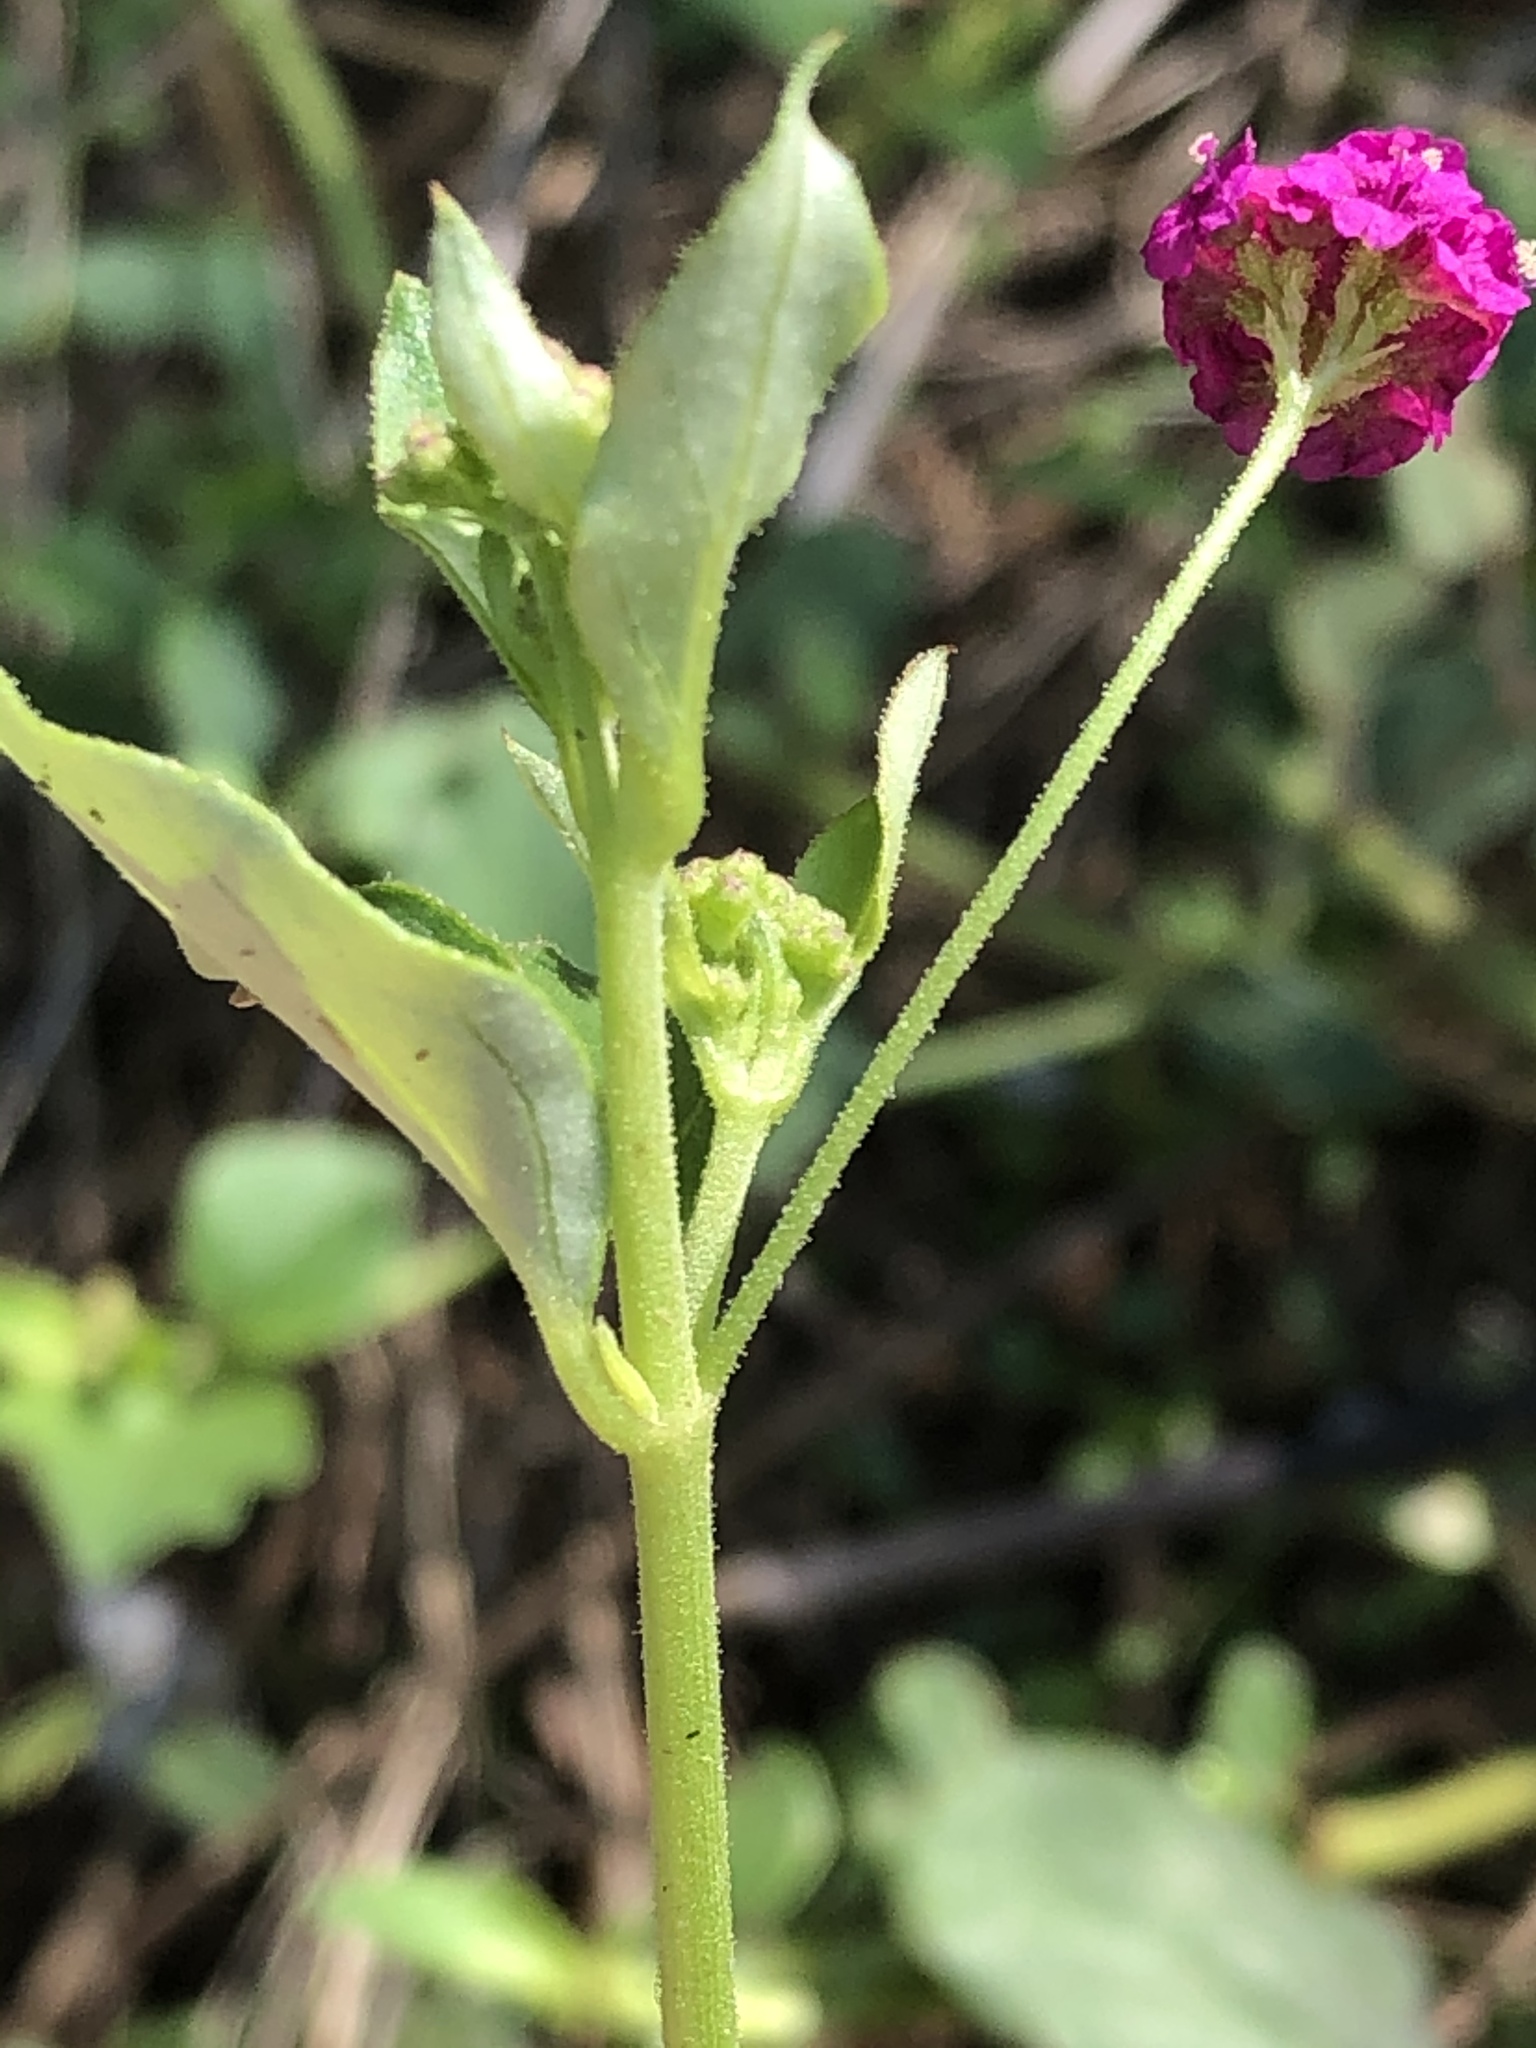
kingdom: Plantae
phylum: Tracheophyta
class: Magnoliopsida
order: Caryophyllales
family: Nyctaginaceae
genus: Boerhavia
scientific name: Boerhavia coccinea
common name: Scarlet spiderling
